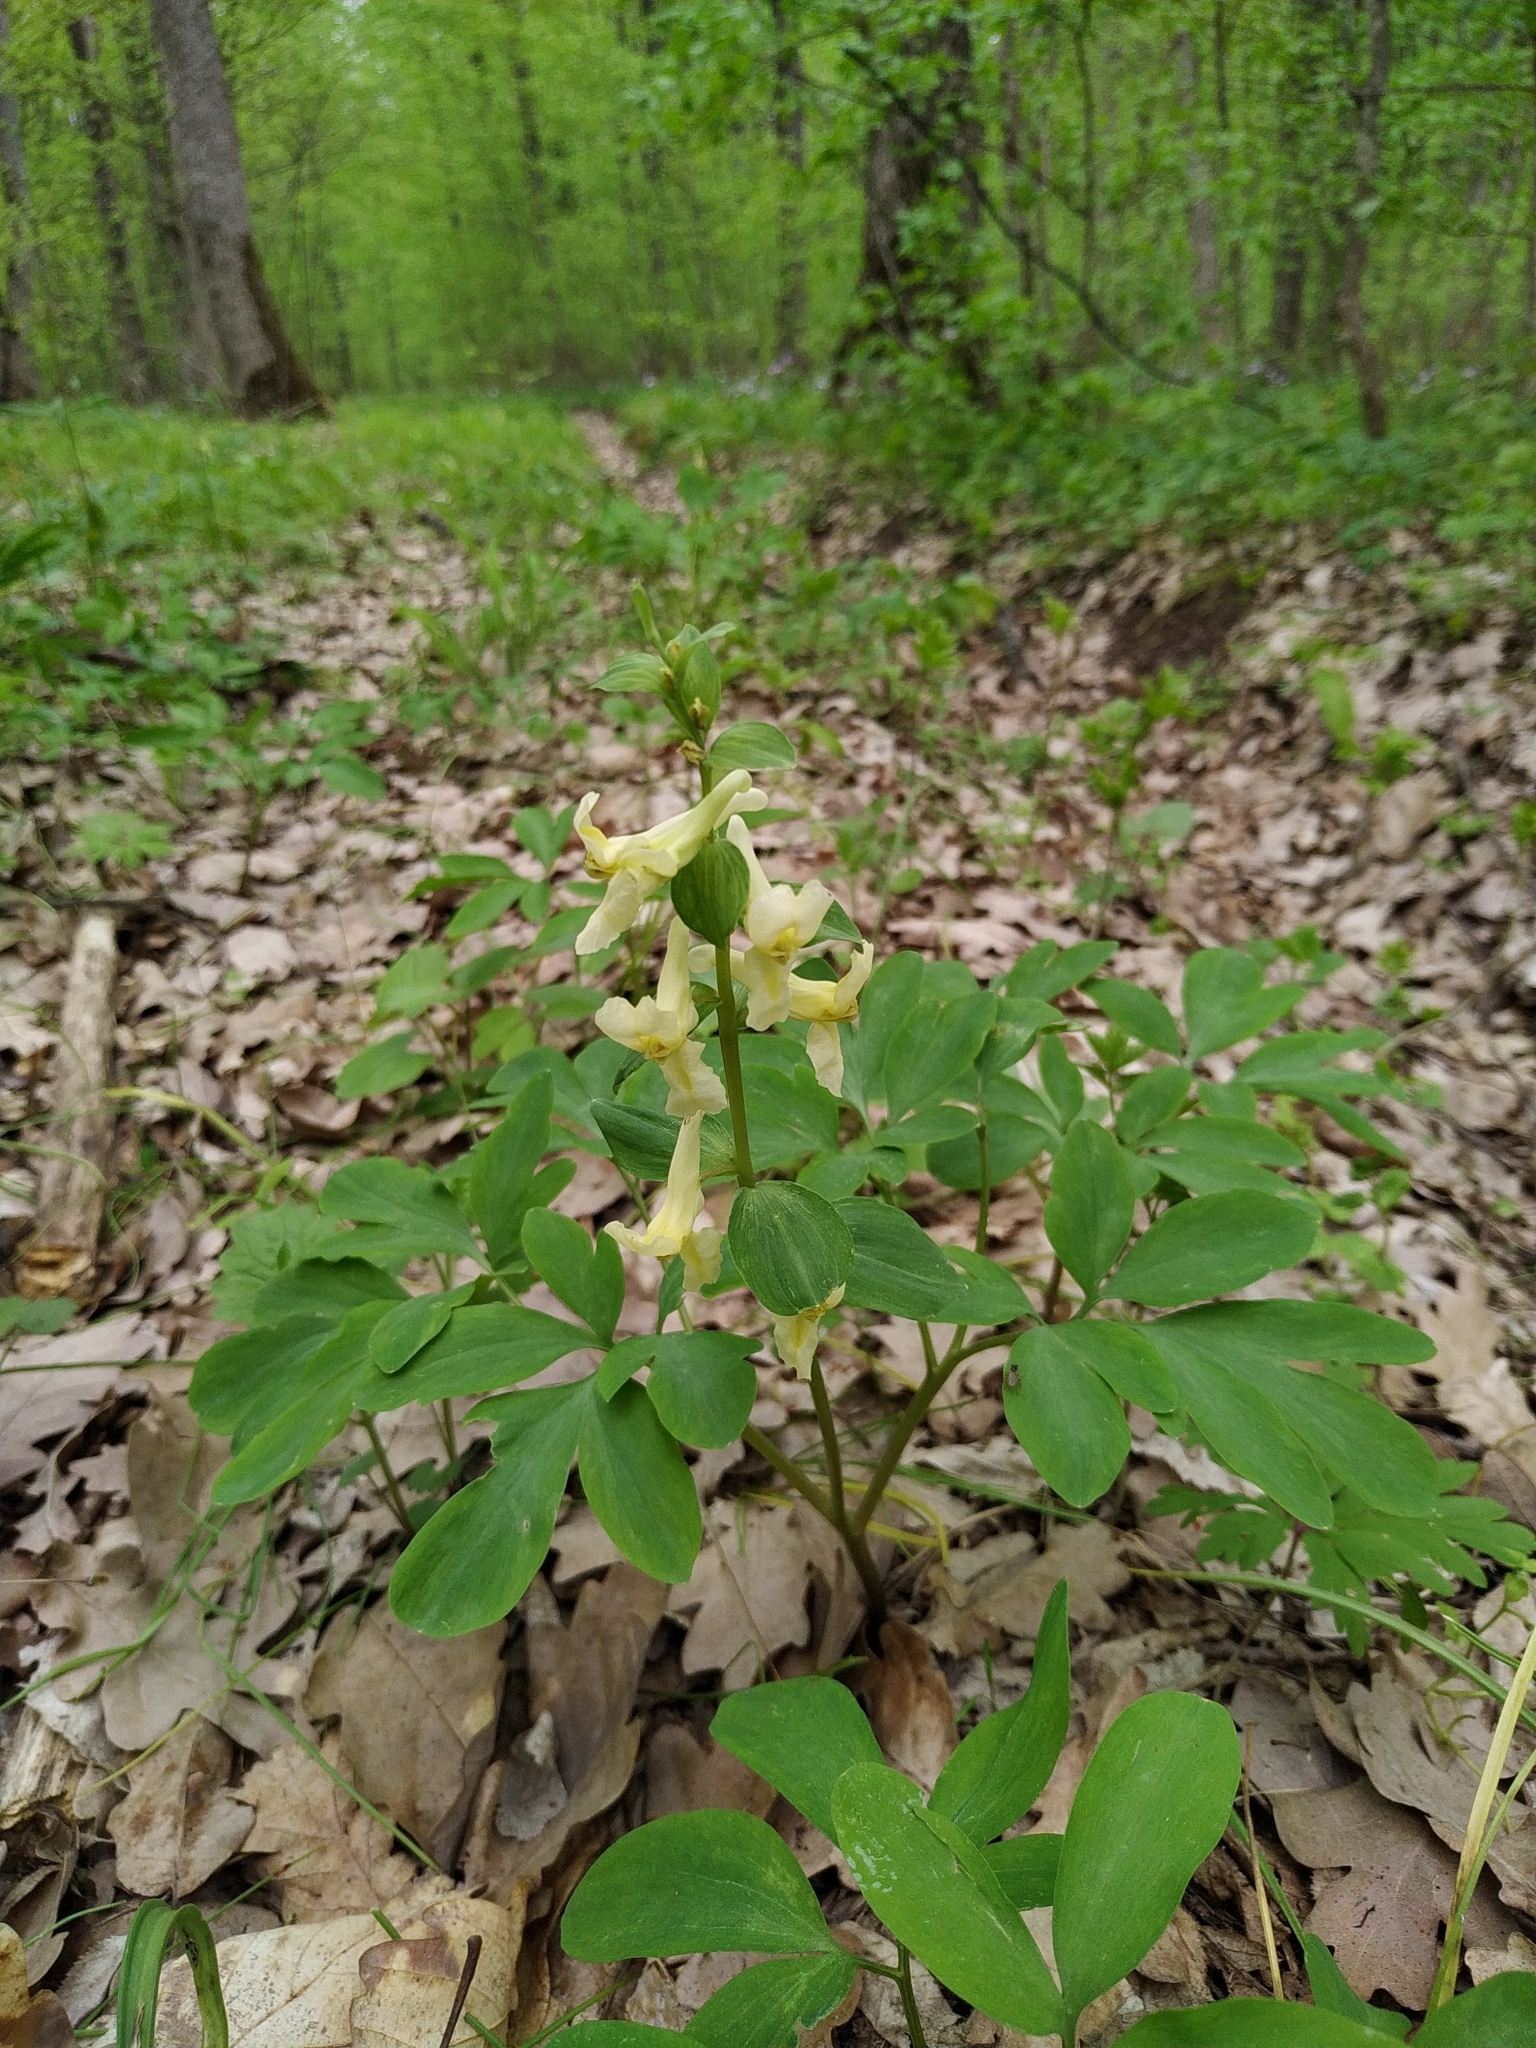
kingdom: Plantae
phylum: Tracheophyta
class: Magnoliopsida
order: Ranunculales
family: Papaveraceae
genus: Corydalis
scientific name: Corydalis cava
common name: Hollowroot
